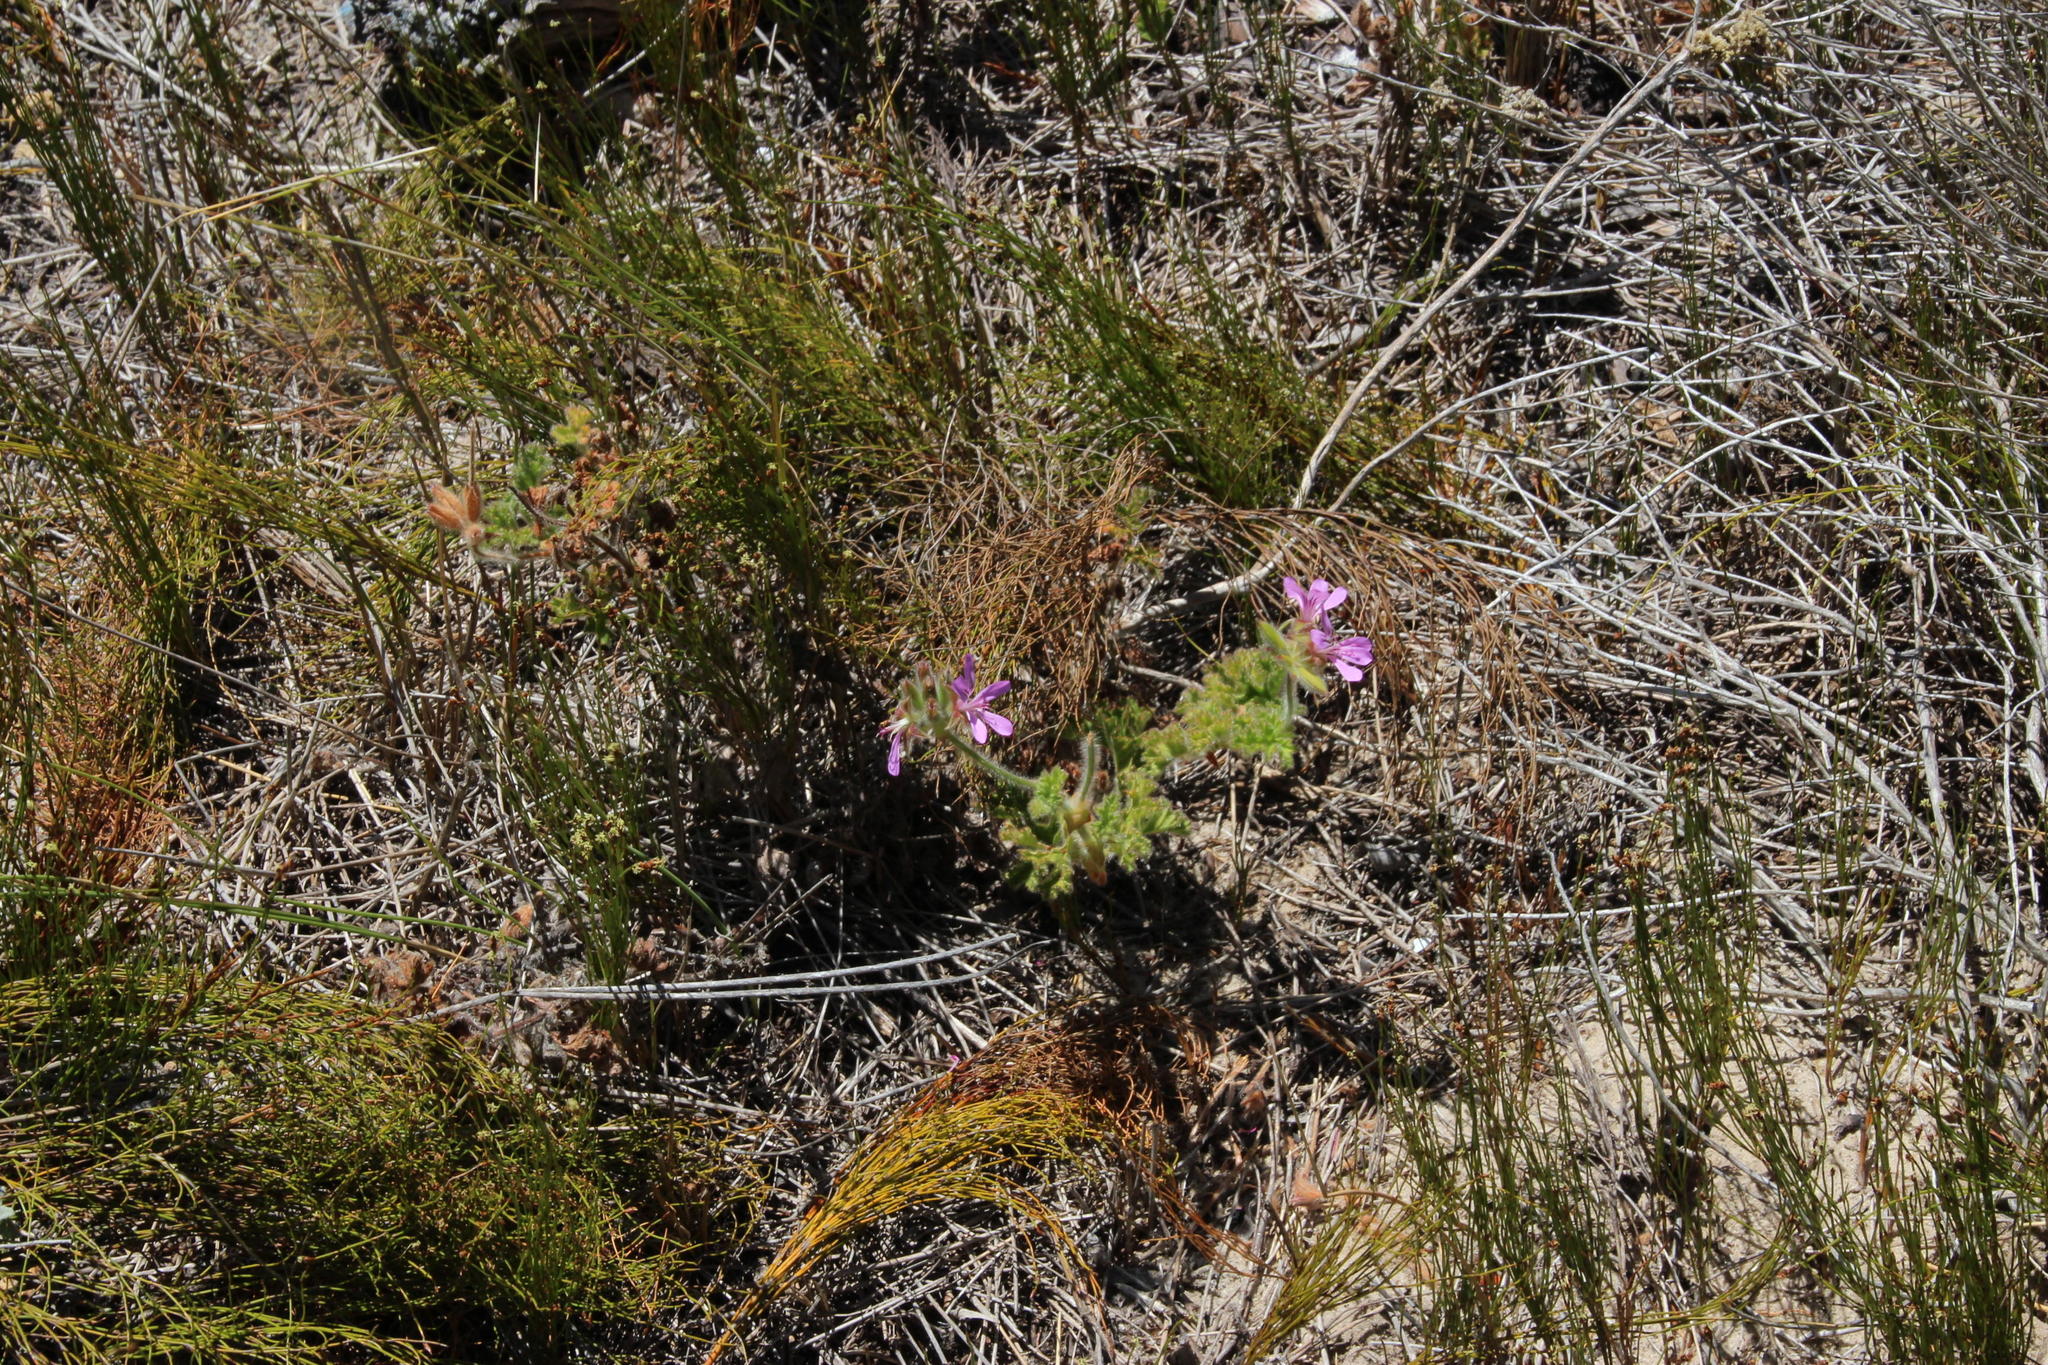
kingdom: Plantae
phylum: Tracheophyta
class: Magnoliopsida
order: Geraniales
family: Geraniaceae
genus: Pelargonium
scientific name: Pelargonium capitatum
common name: Rose scented geranium
